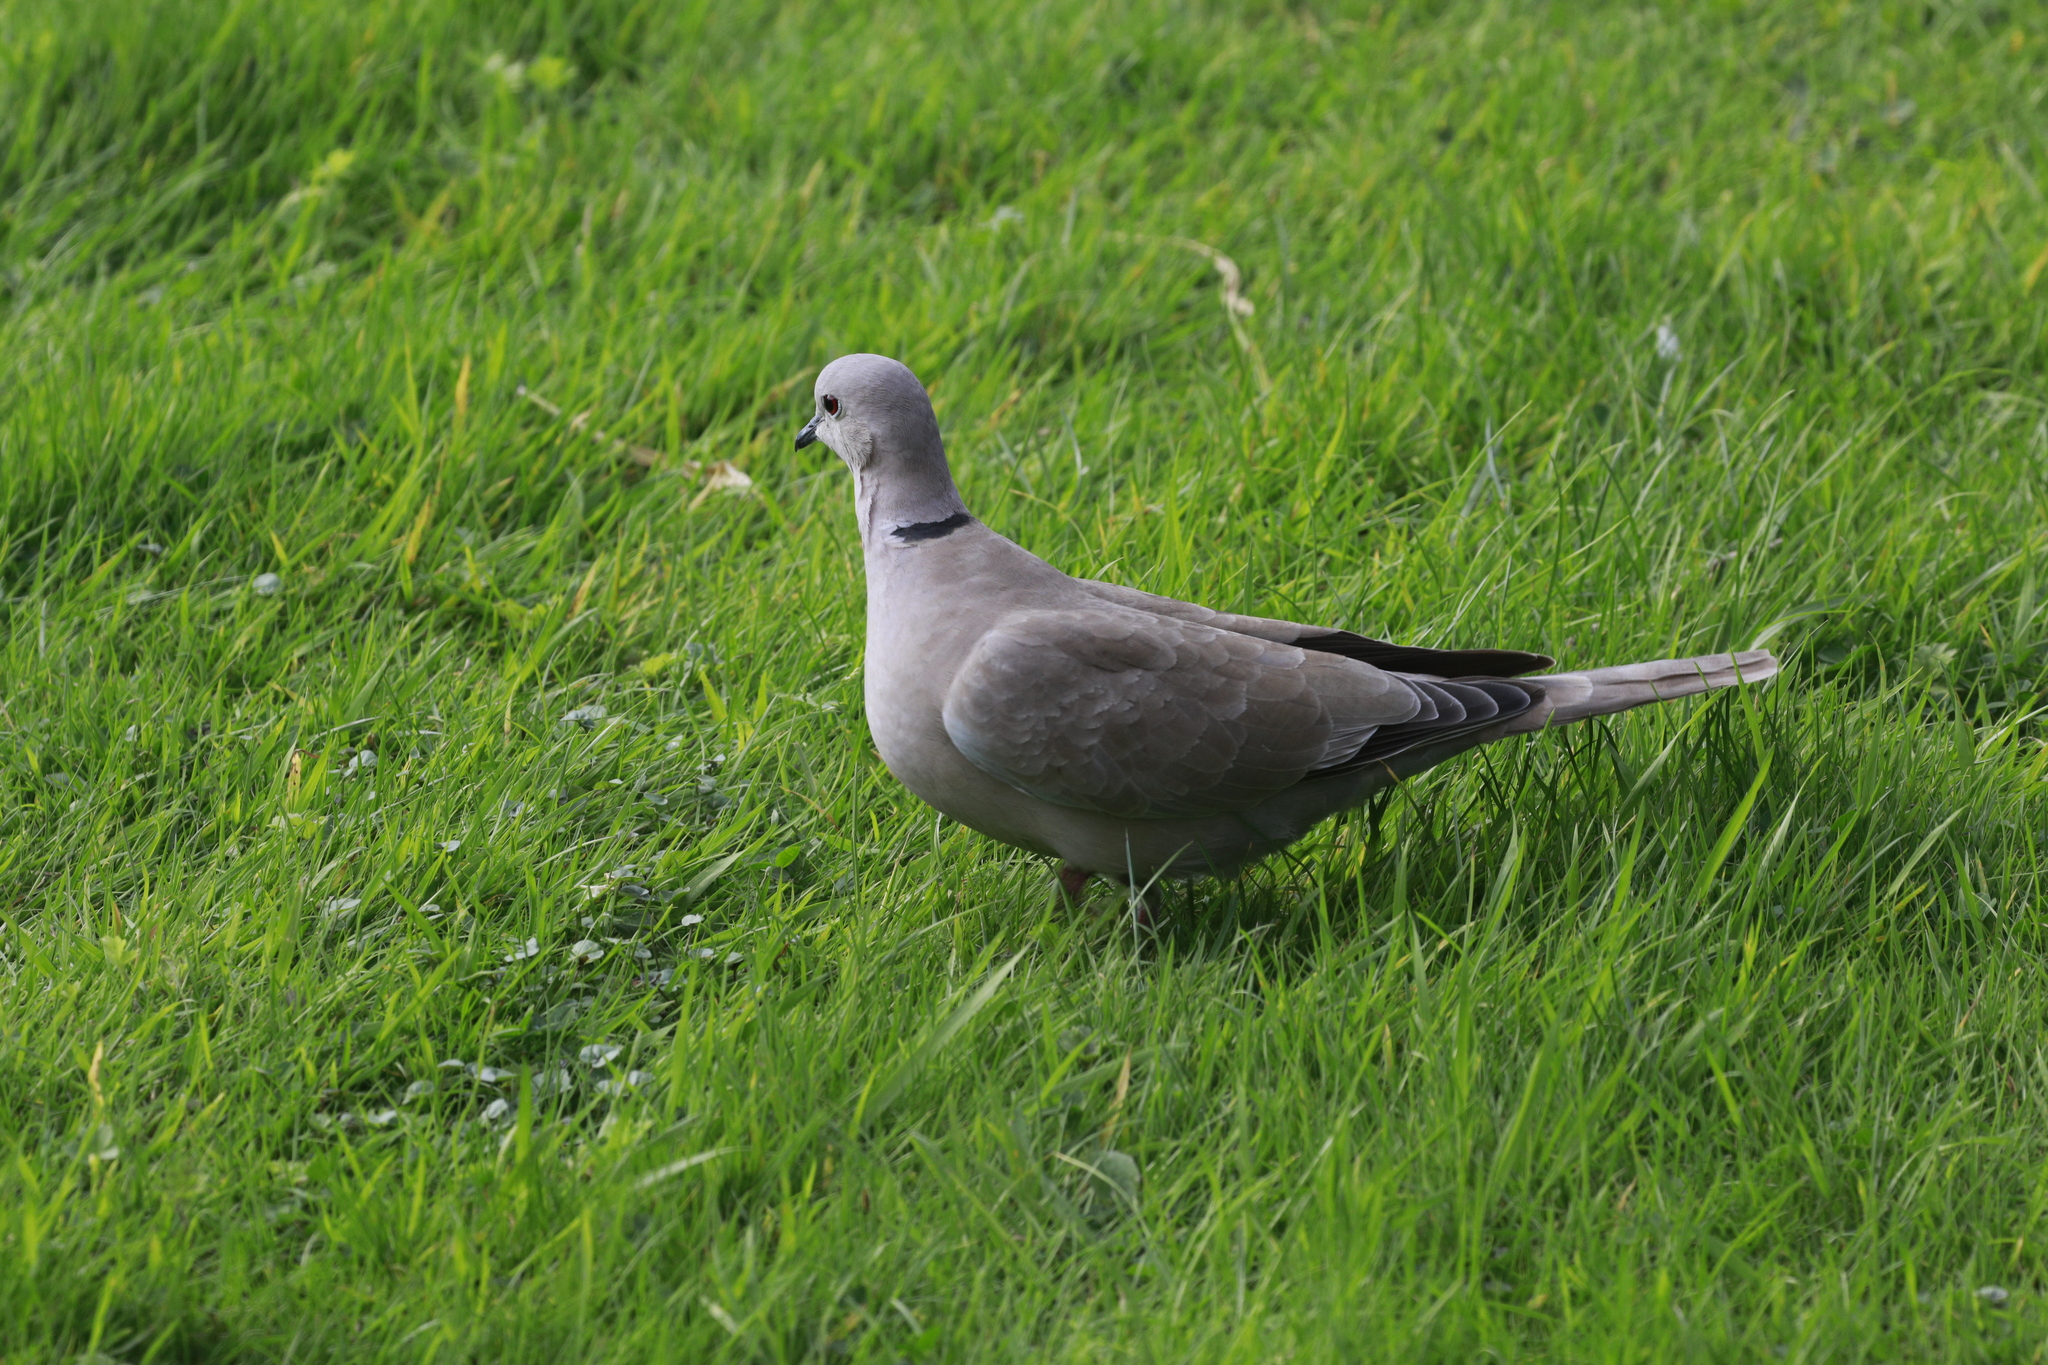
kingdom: Animalia
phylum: Chordata
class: Aves
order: Columbiformes
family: Columbidae
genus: Streptopelia
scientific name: Streptopelia decaocto
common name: Eurasian collared dove
